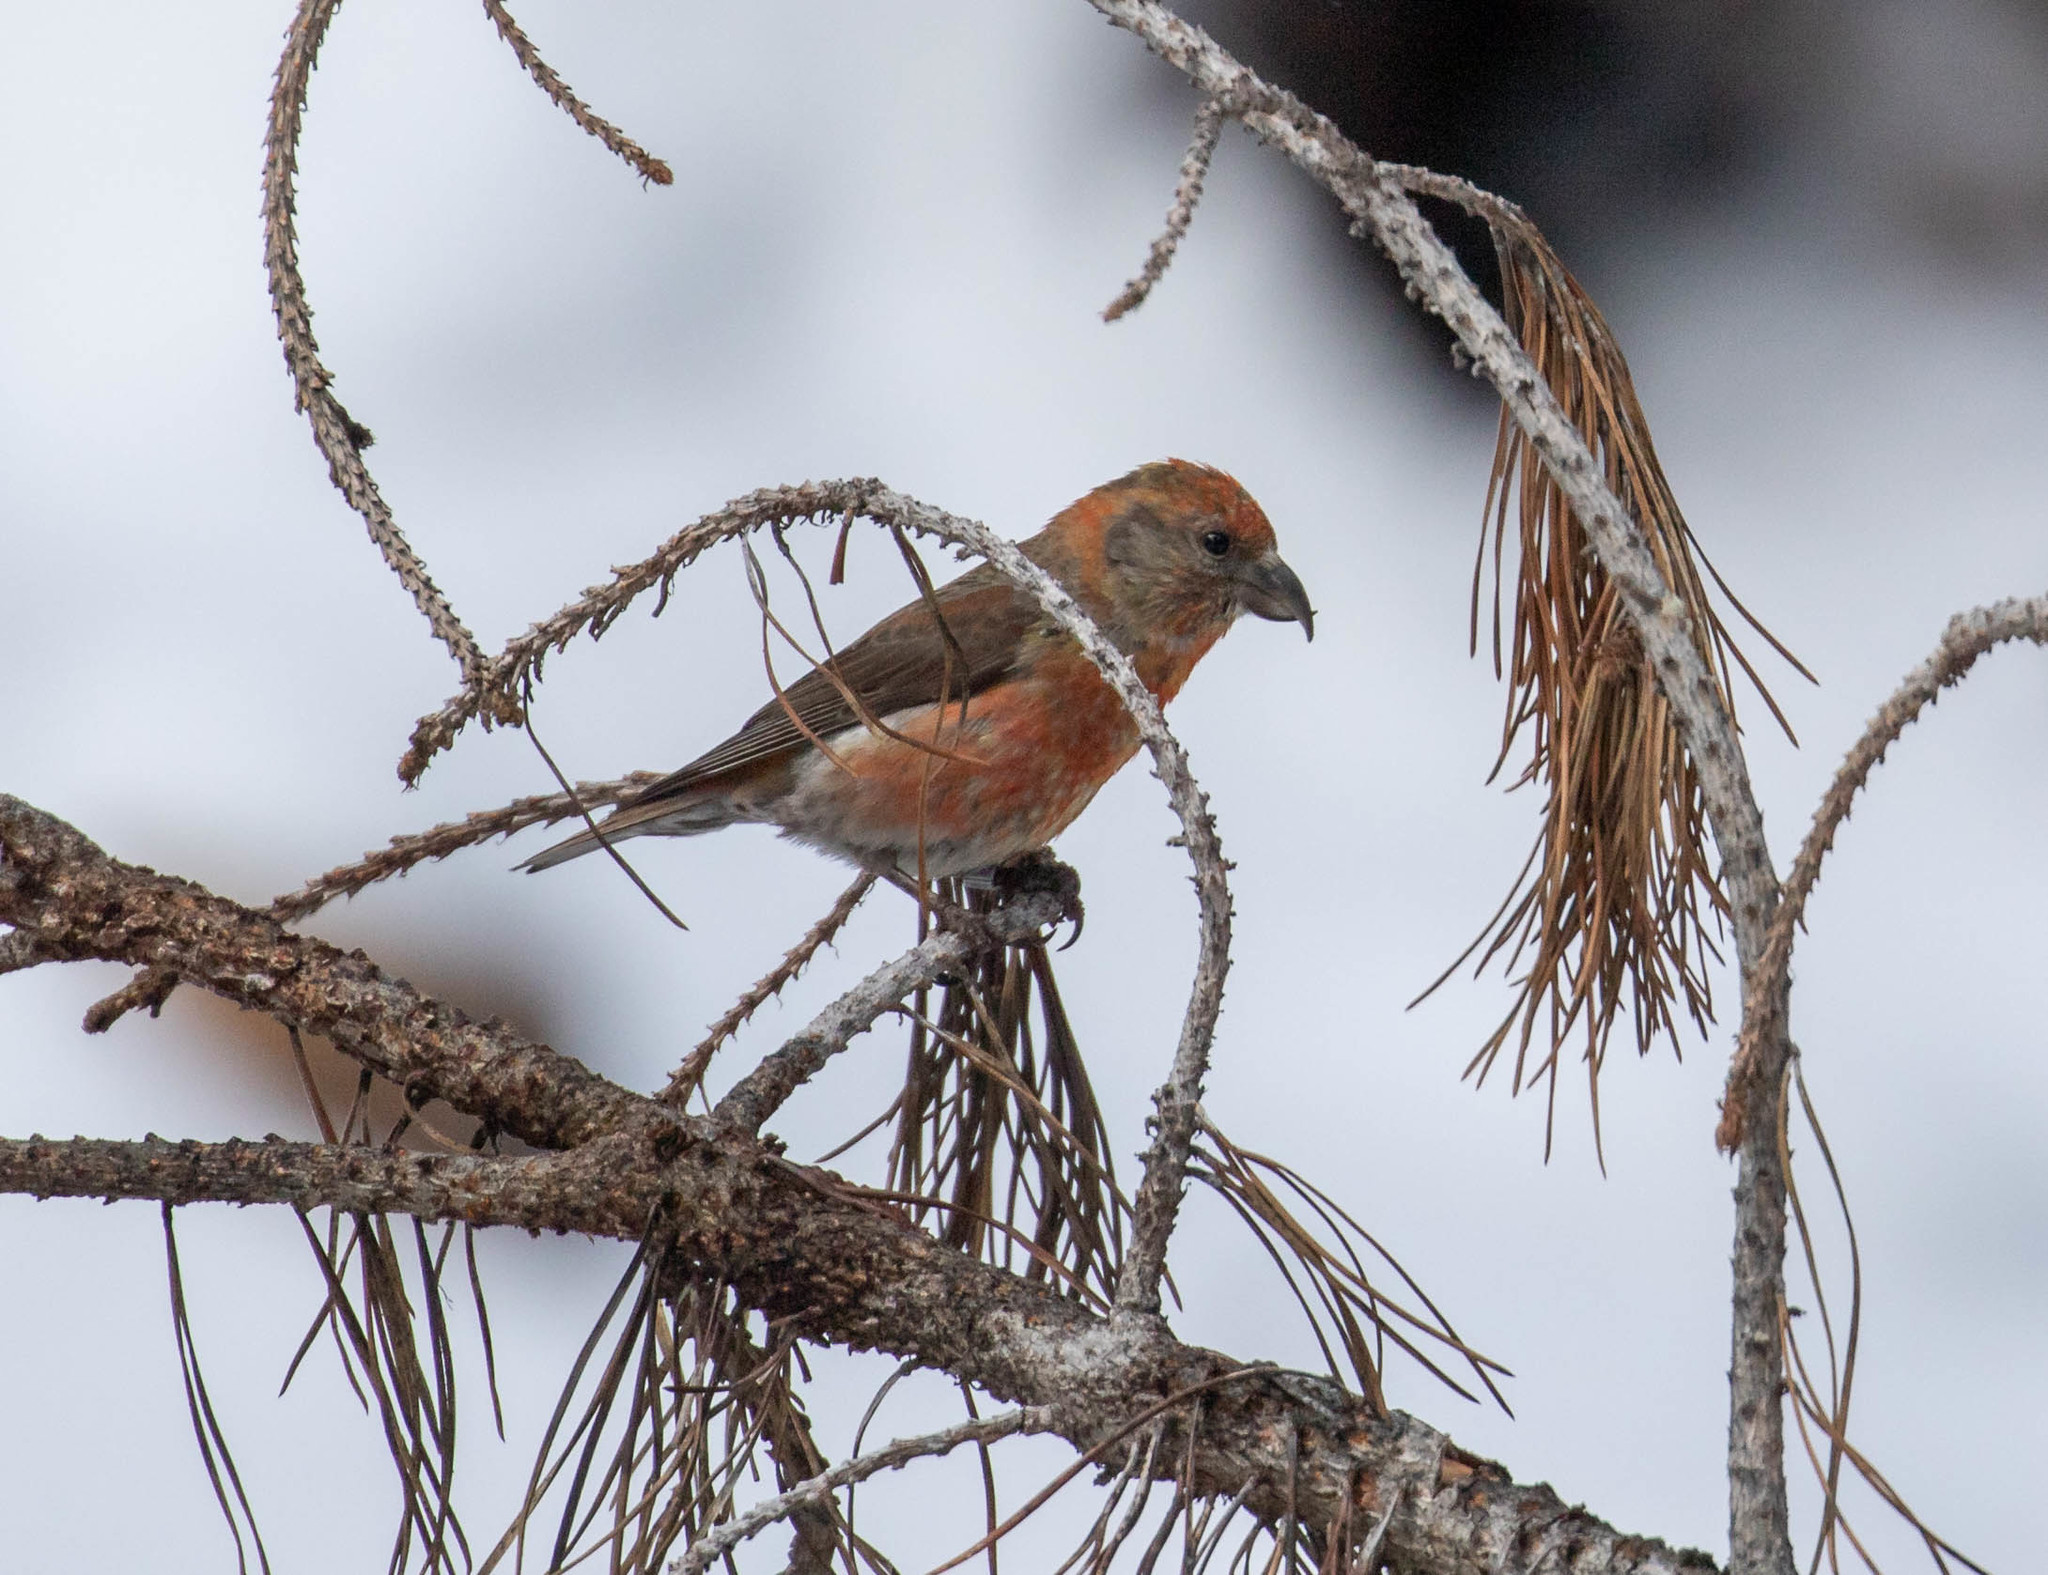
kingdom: Animalia
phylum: Chordata
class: Aves
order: Passeriformes
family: Fringillidae
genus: Loxia
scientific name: Loxia sinesciuris
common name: Cassia crossbill
